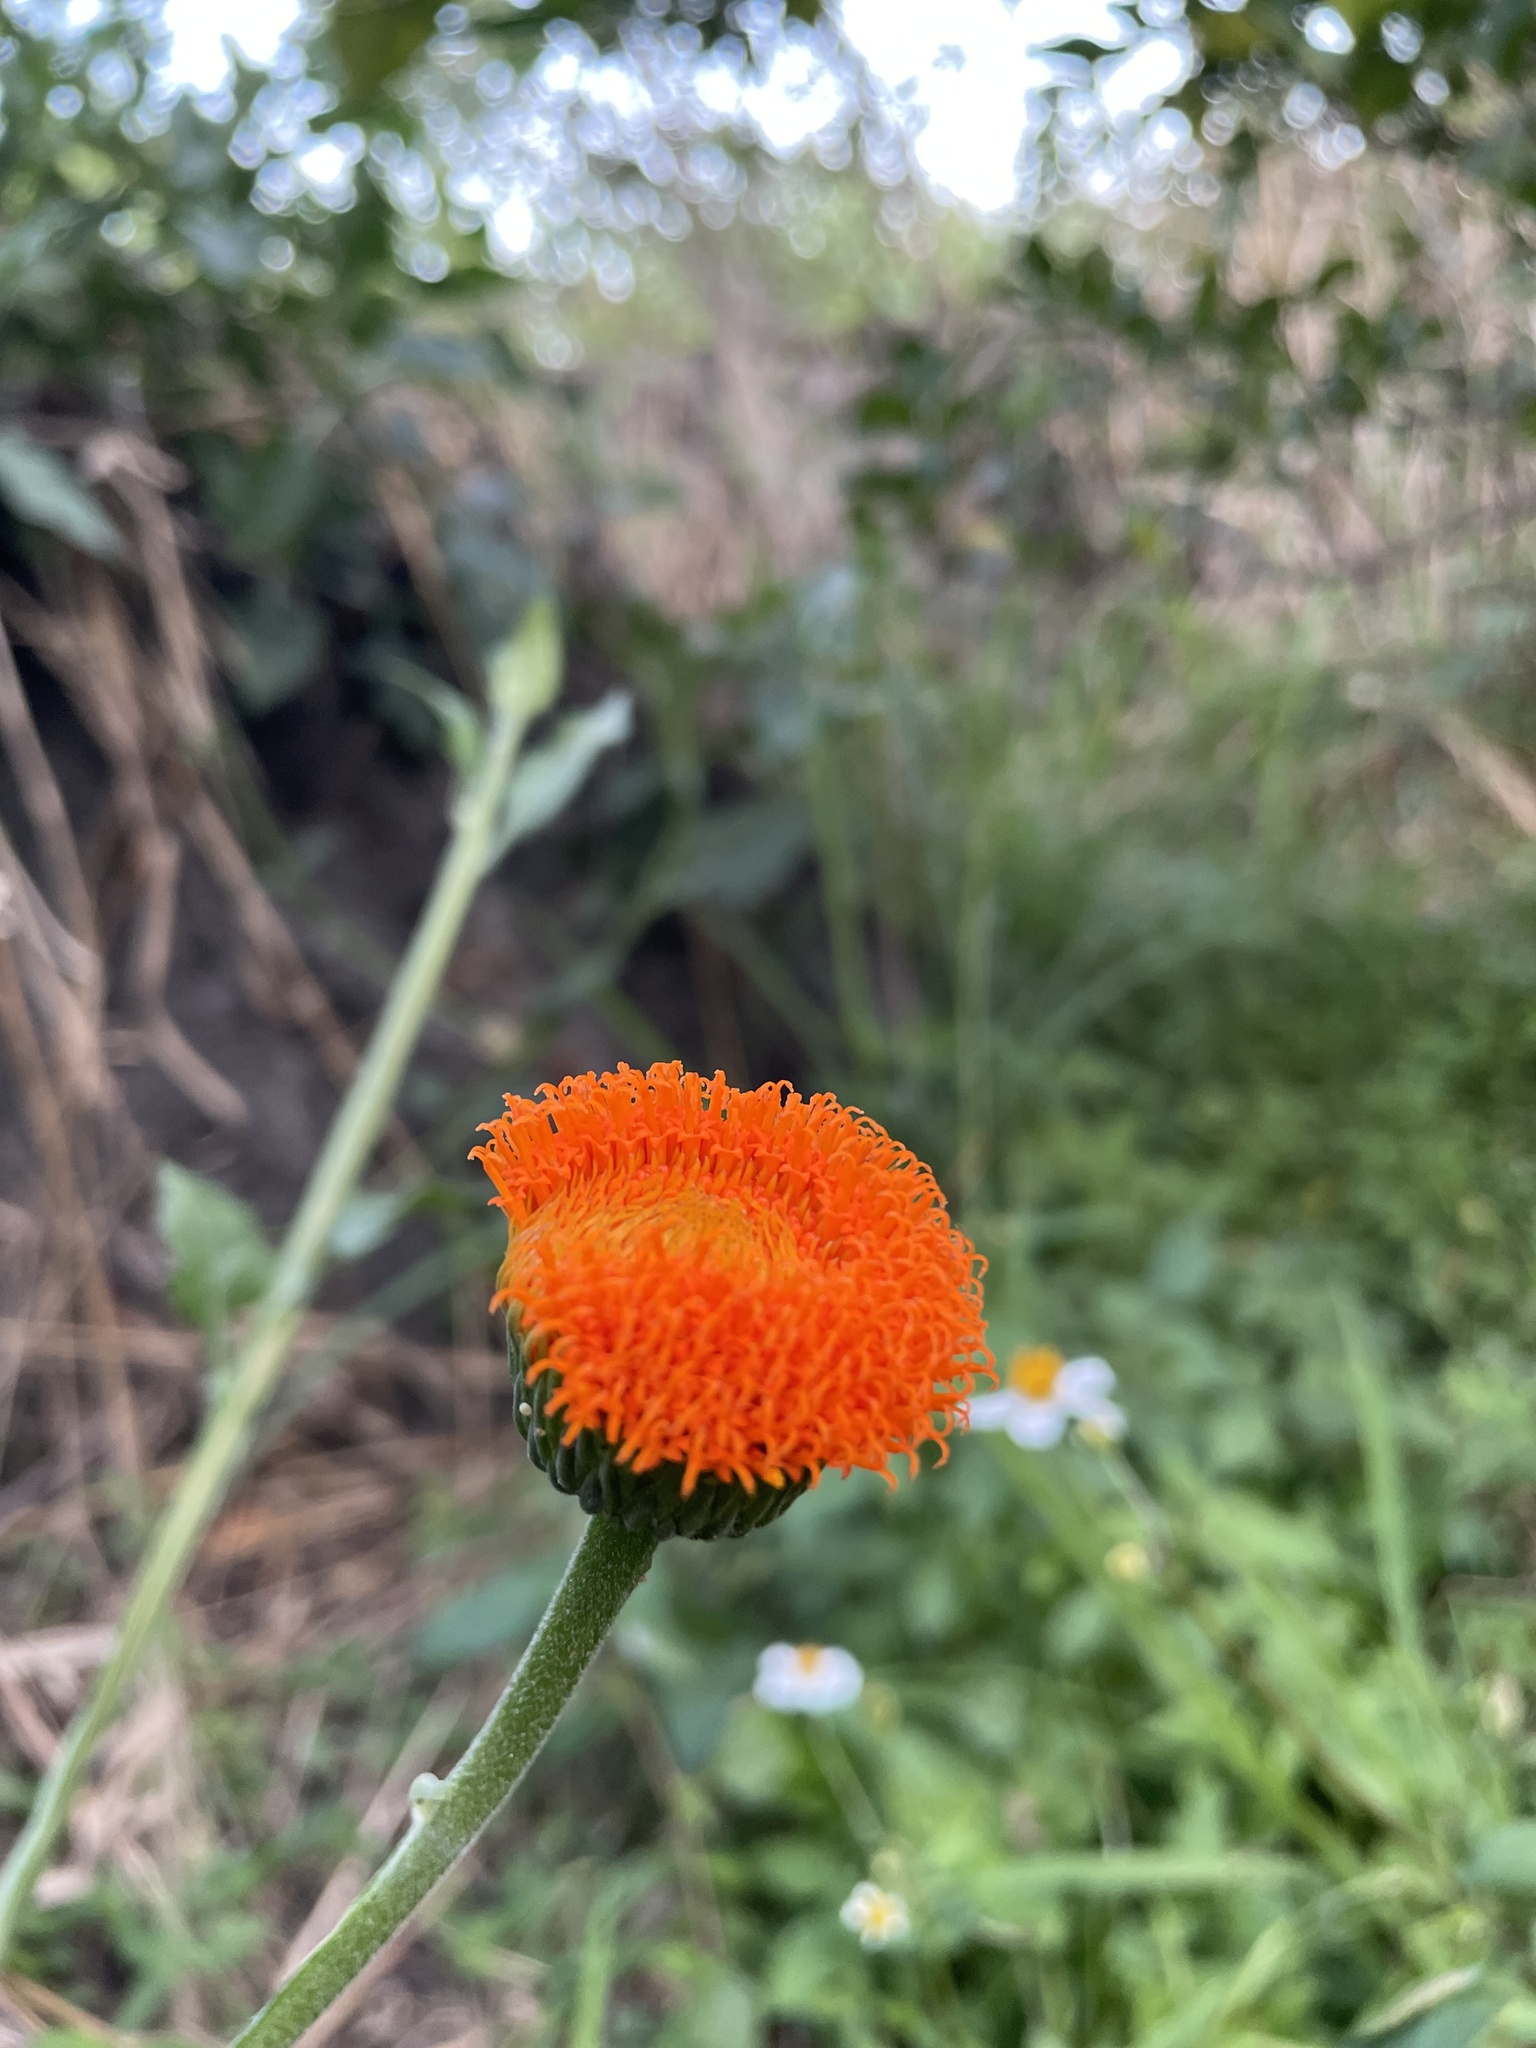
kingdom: Plantae
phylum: Tracheophyta
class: Magnoliopsida
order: Asterales
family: Asteraceae
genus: Verbesina
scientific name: Verbesina crocata
